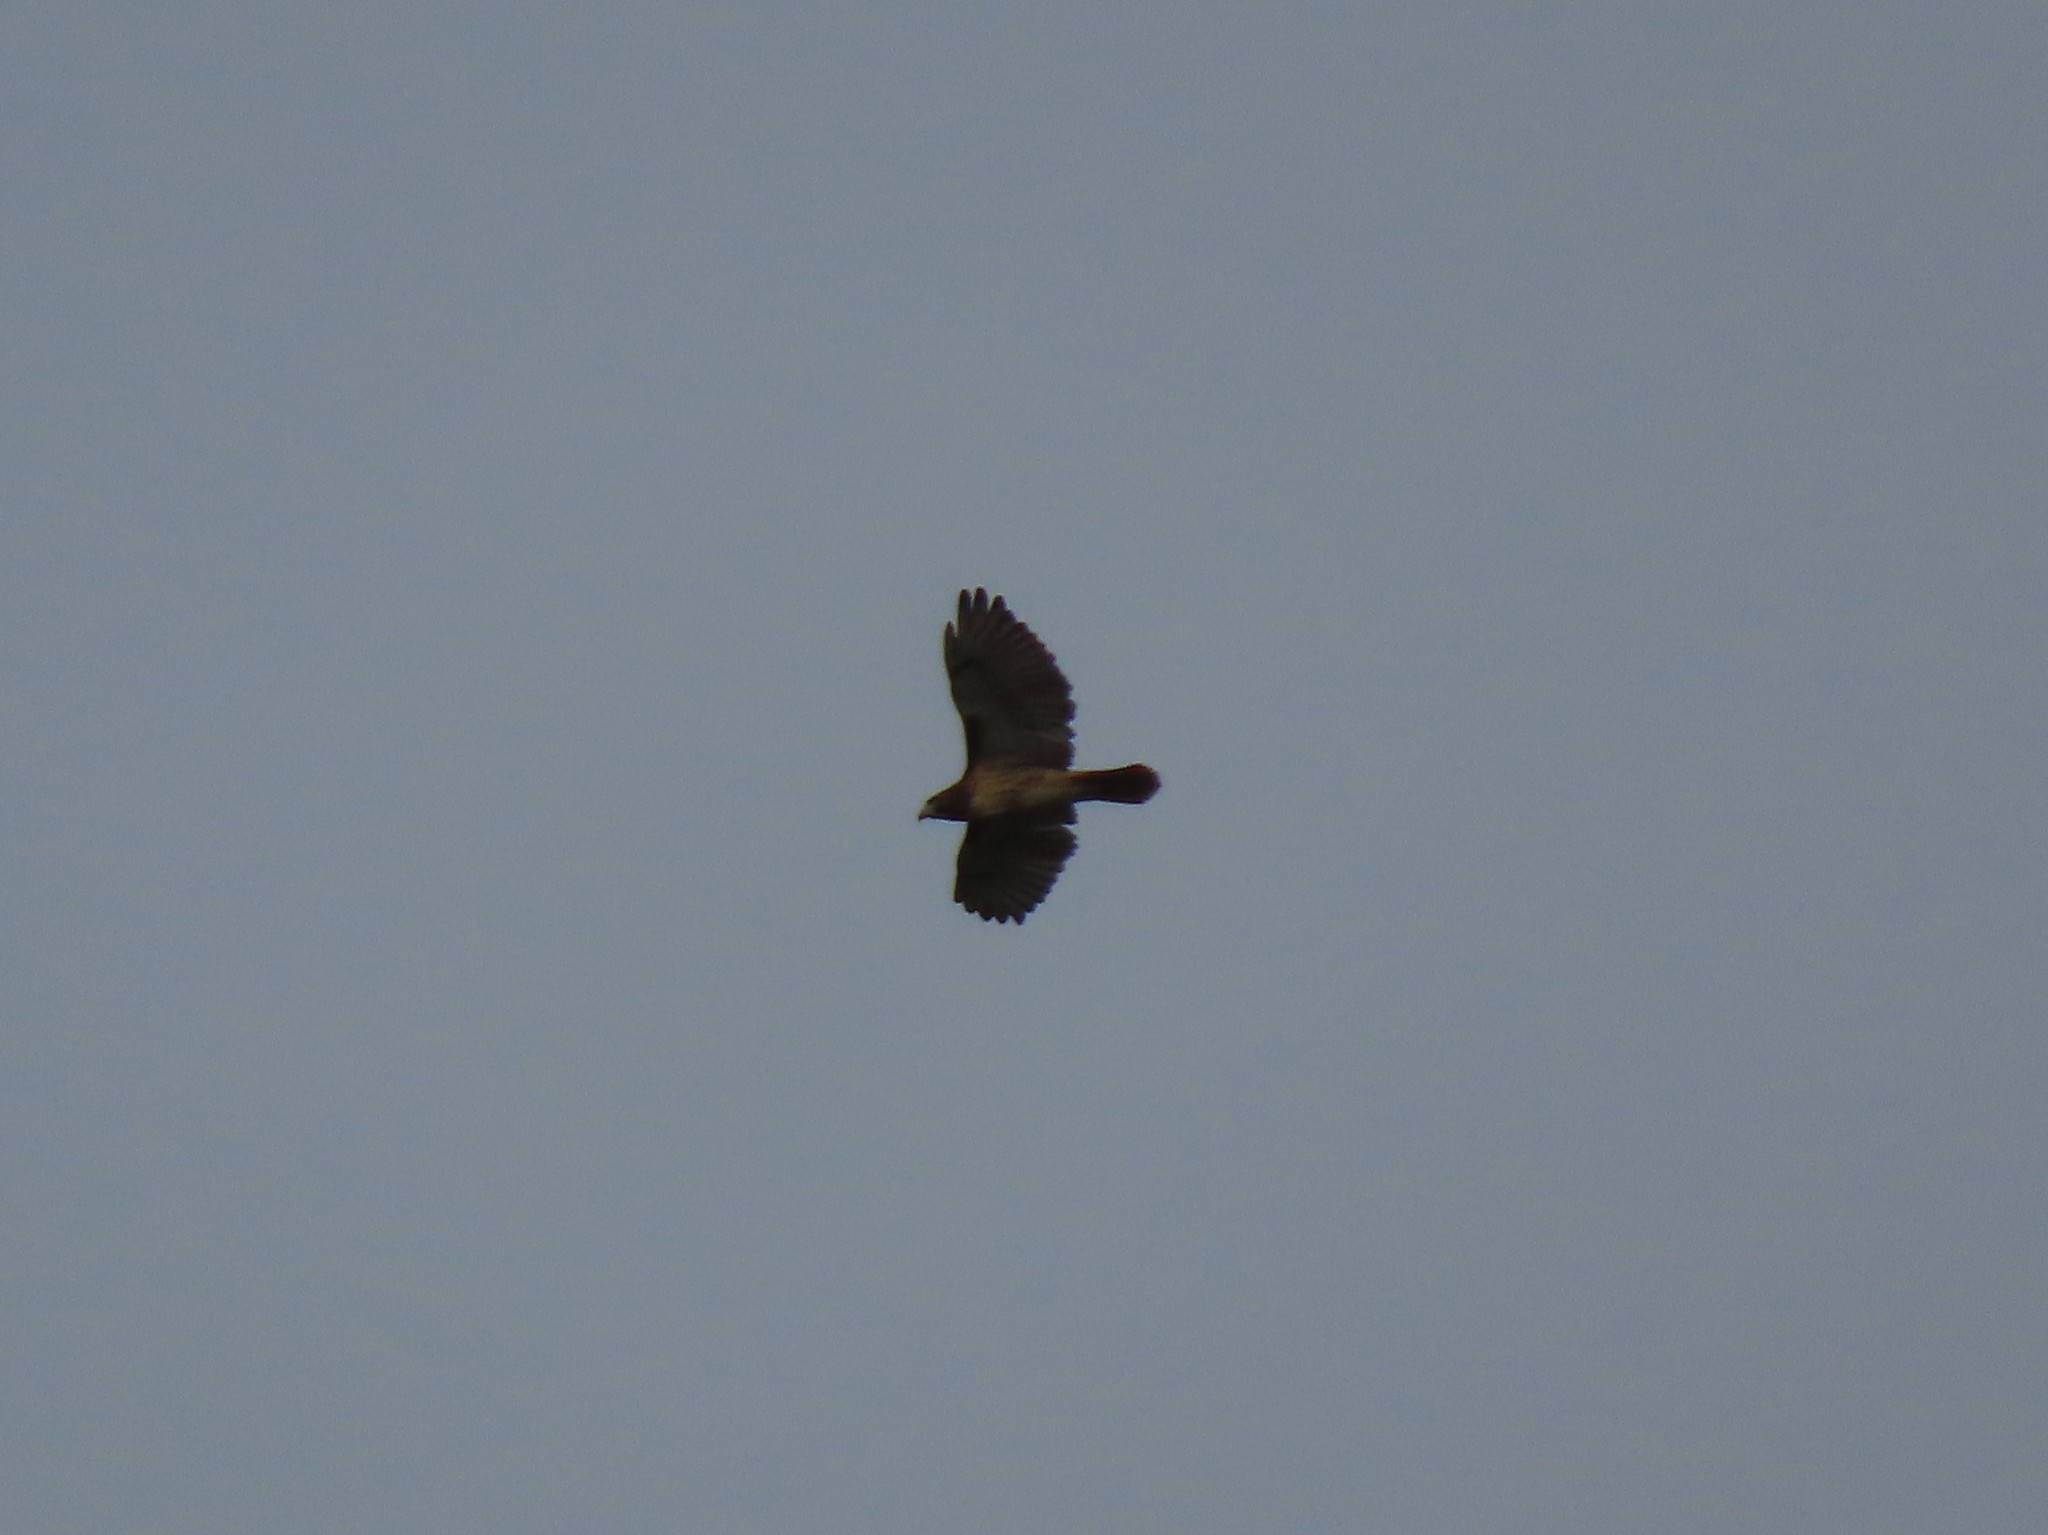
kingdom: Animalia
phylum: Chordata
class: Aves
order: Accipitriformes
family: Accipitridae
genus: Buteo
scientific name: Buteo jamaicensis
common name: Red-tailed hawk
